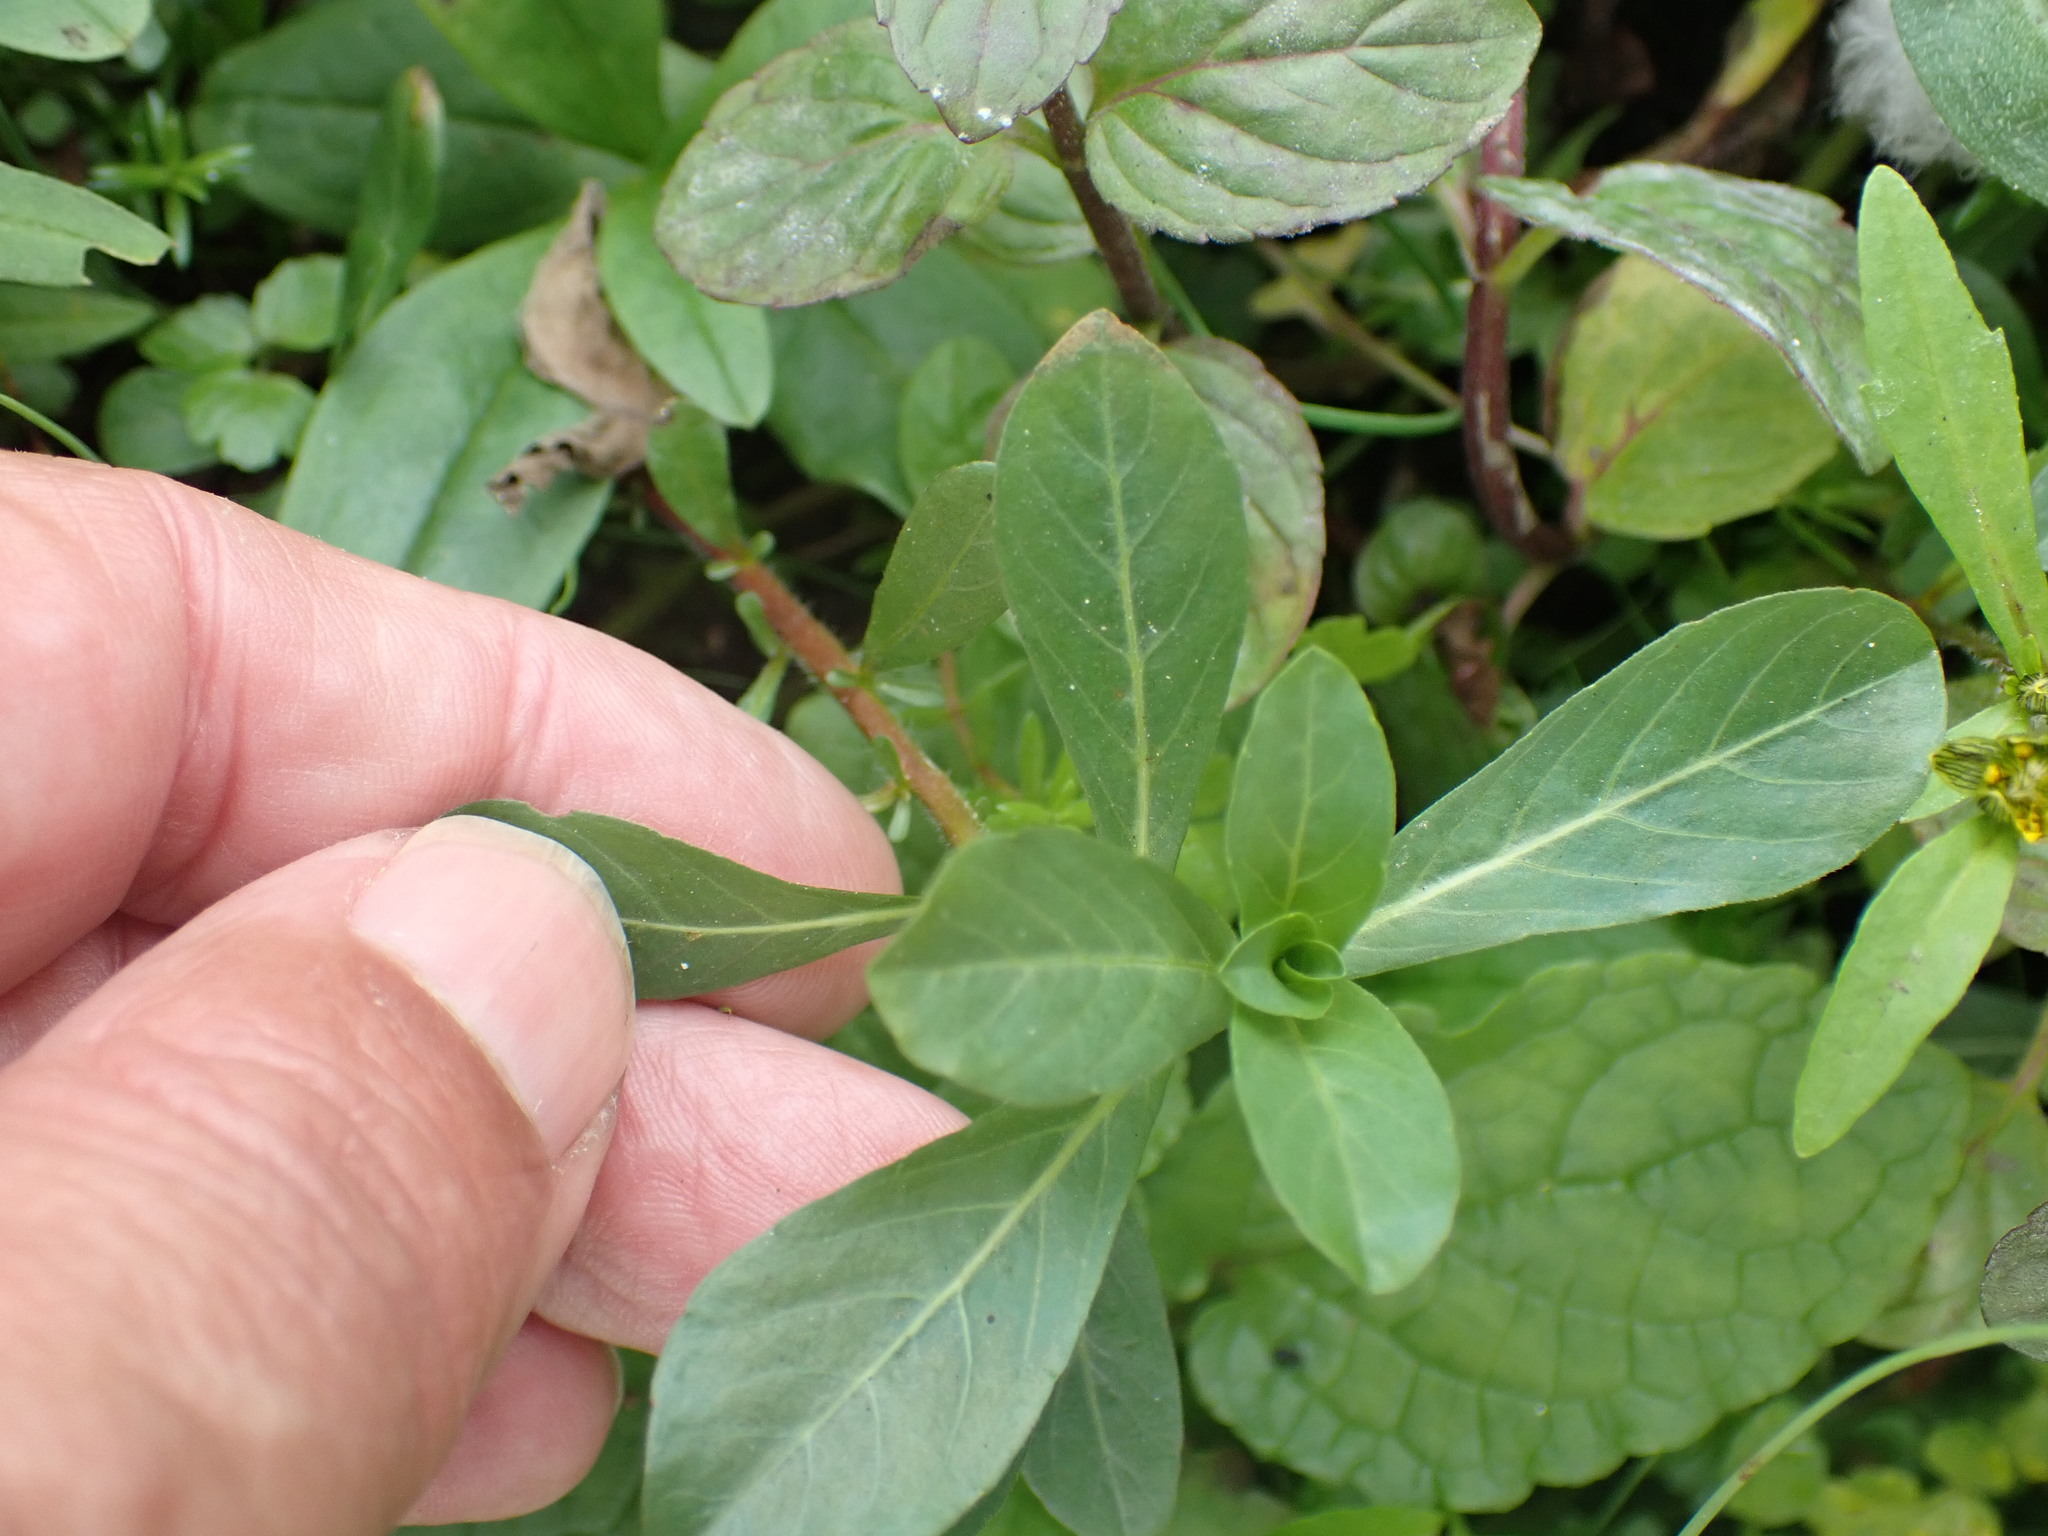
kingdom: Plantae
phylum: Tracheophyta
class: Magnoliopsida
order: Myrtales
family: Onagraceae
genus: Ludwigia
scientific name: Ludwigia grandiflora
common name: Water primrose
